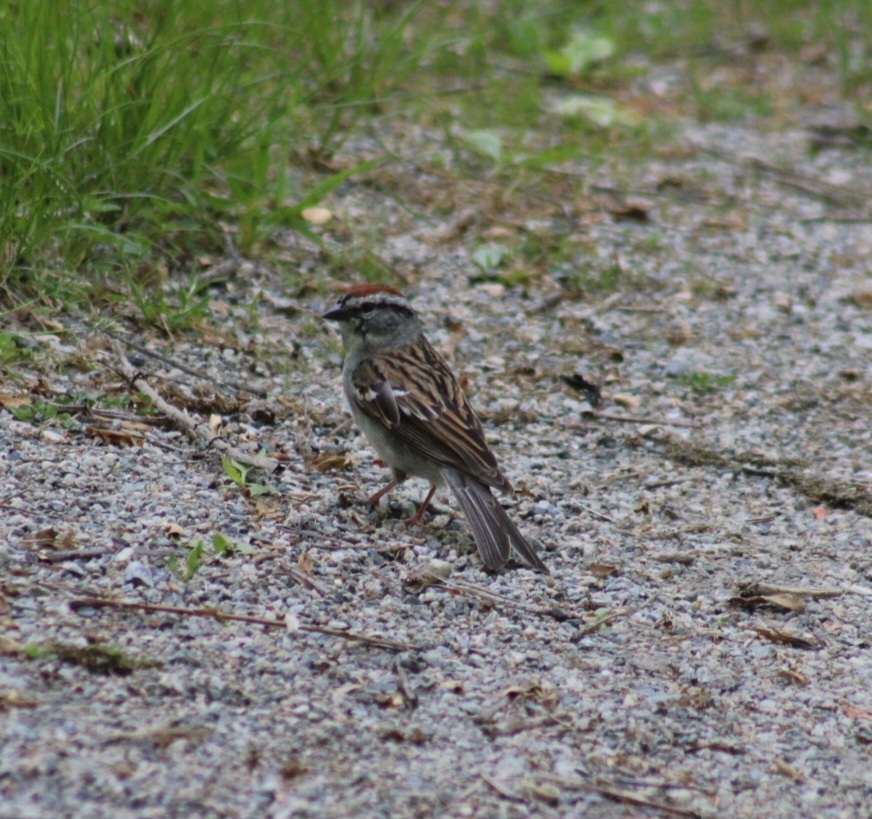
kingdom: Animalia
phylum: Chordata
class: Aves
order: Passeriformes
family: Passerellidae
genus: Spizella
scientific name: Spizella passerina
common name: Chipping sparrow
